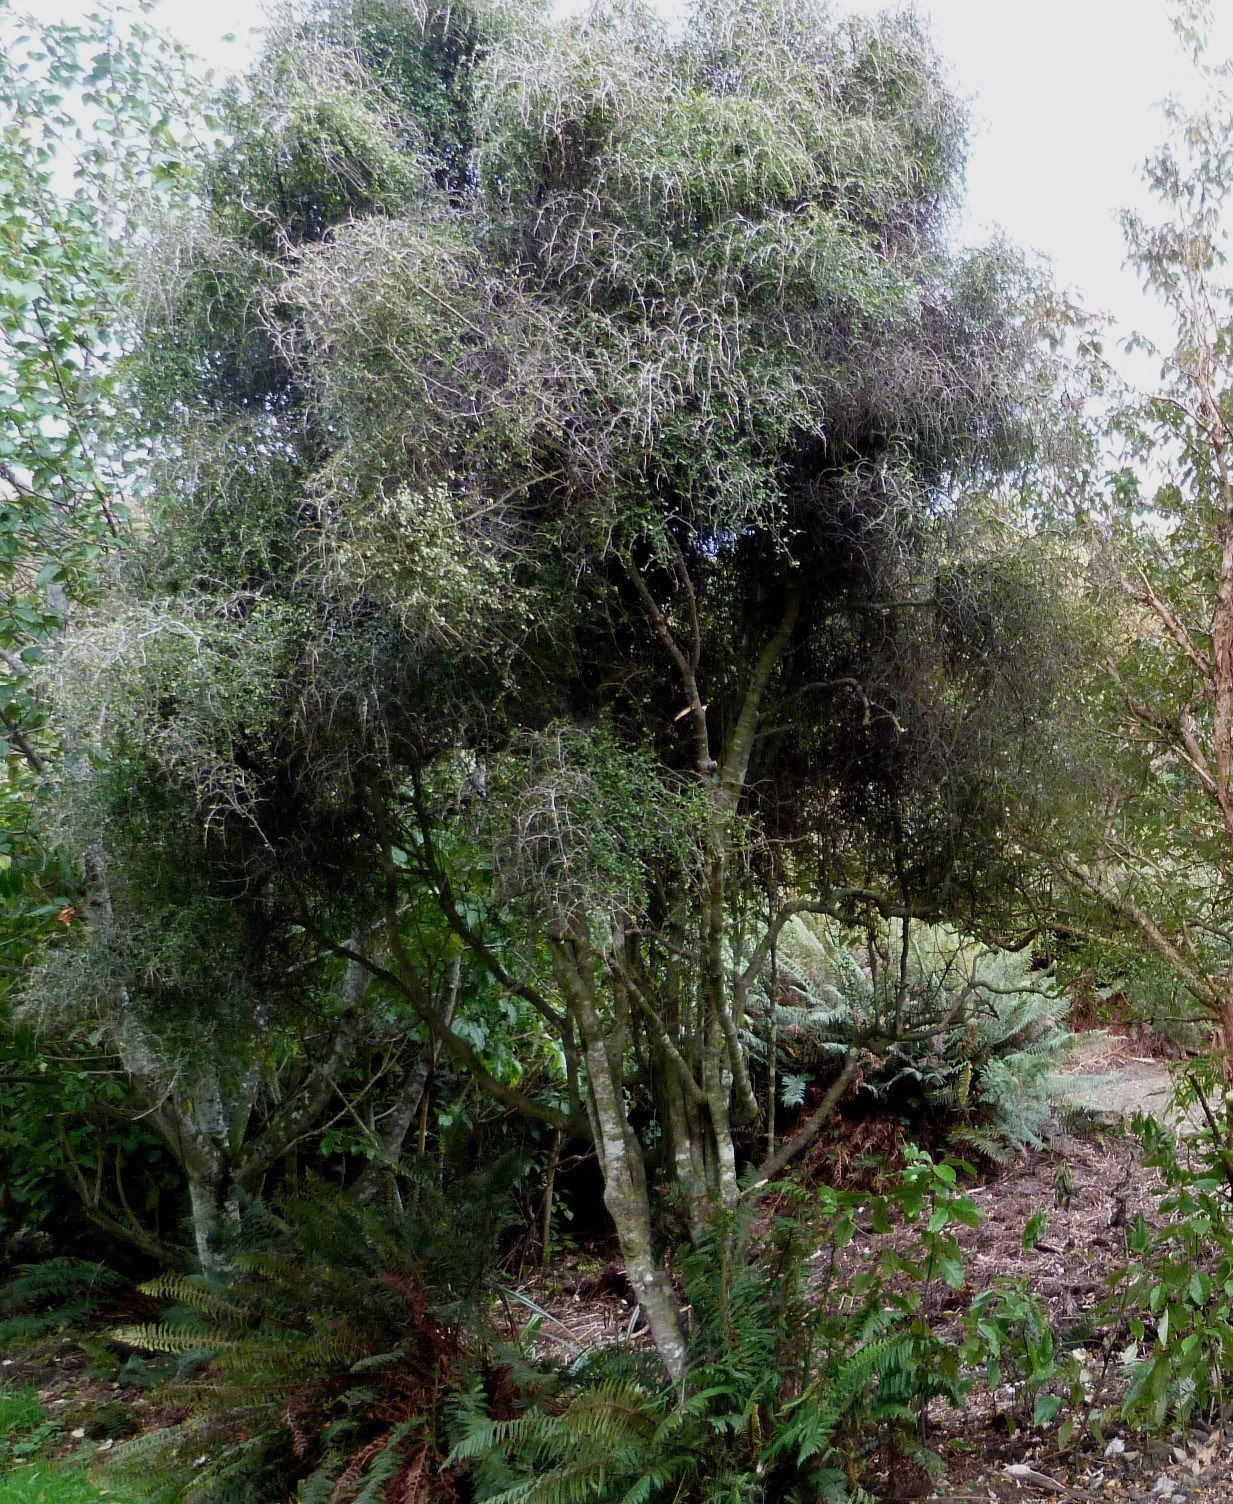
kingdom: Plantae
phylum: Tracheophyta
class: Magnoliopsida
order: Ericales
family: Primulaceae
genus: Myrsine
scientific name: Myrsine divaricata
